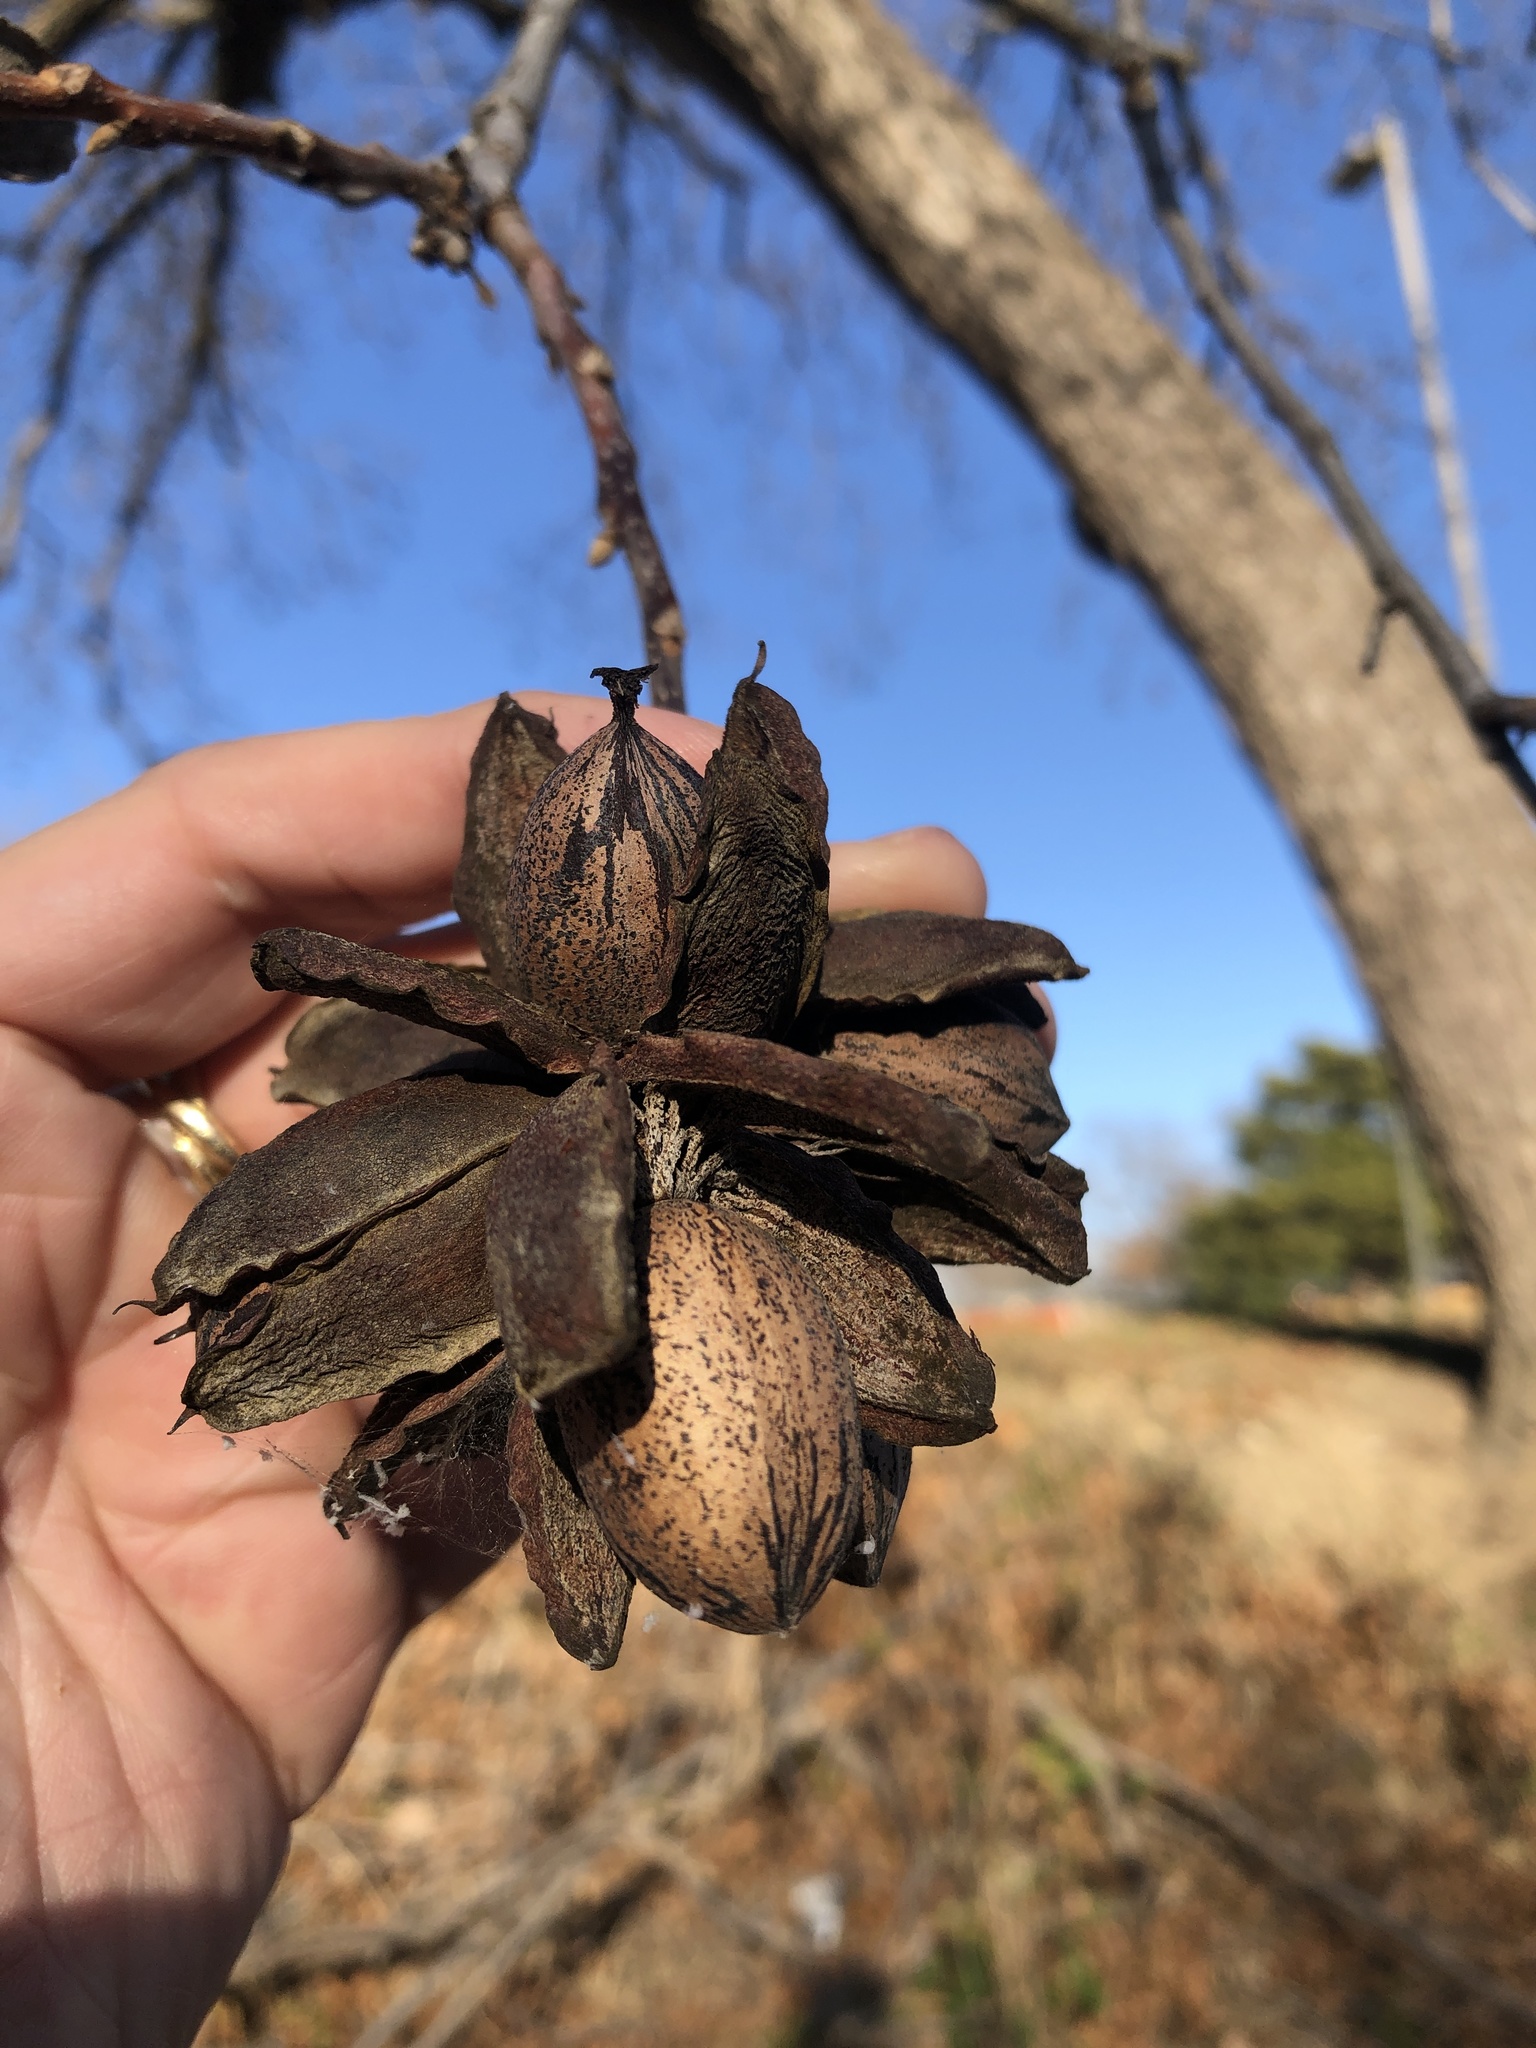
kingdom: Plantae
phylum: Tracheophyta
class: Magnoliopsida
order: Fagales
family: Juglandaceae
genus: Carya
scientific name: Carya illinoinensis
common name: Pecan
